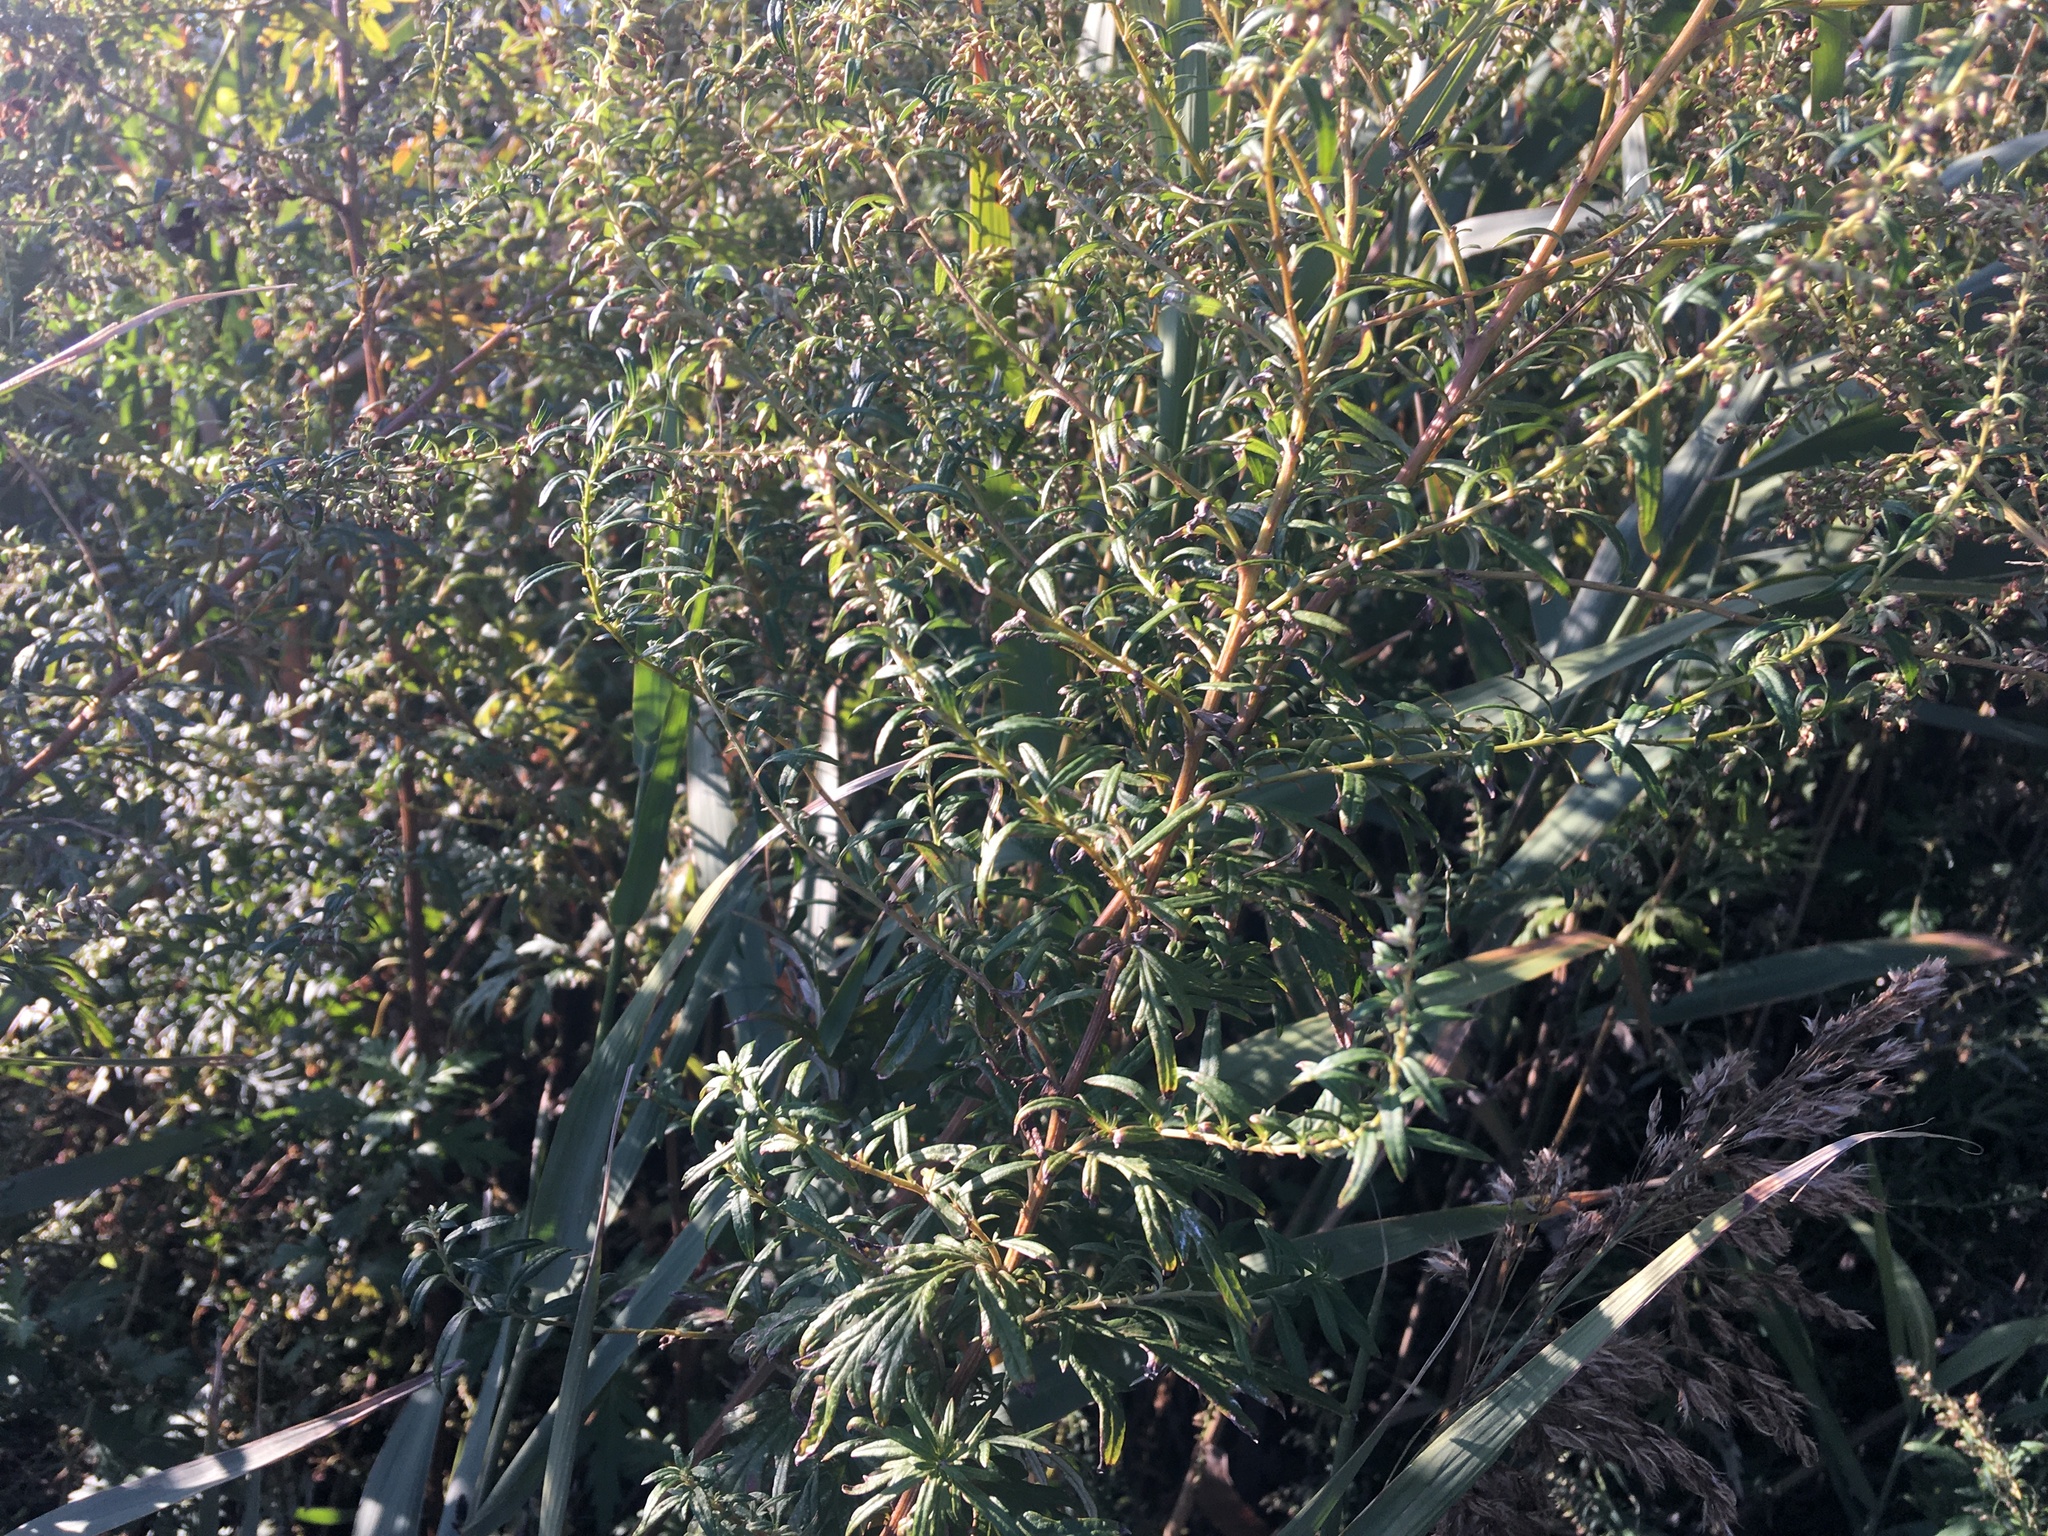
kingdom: Plantae
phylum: Tracheophyta
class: Magnoliopsida
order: Asterales
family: Asteraceae
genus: Artemisia
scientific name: Artemisia vulgaris
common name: Mugwort
